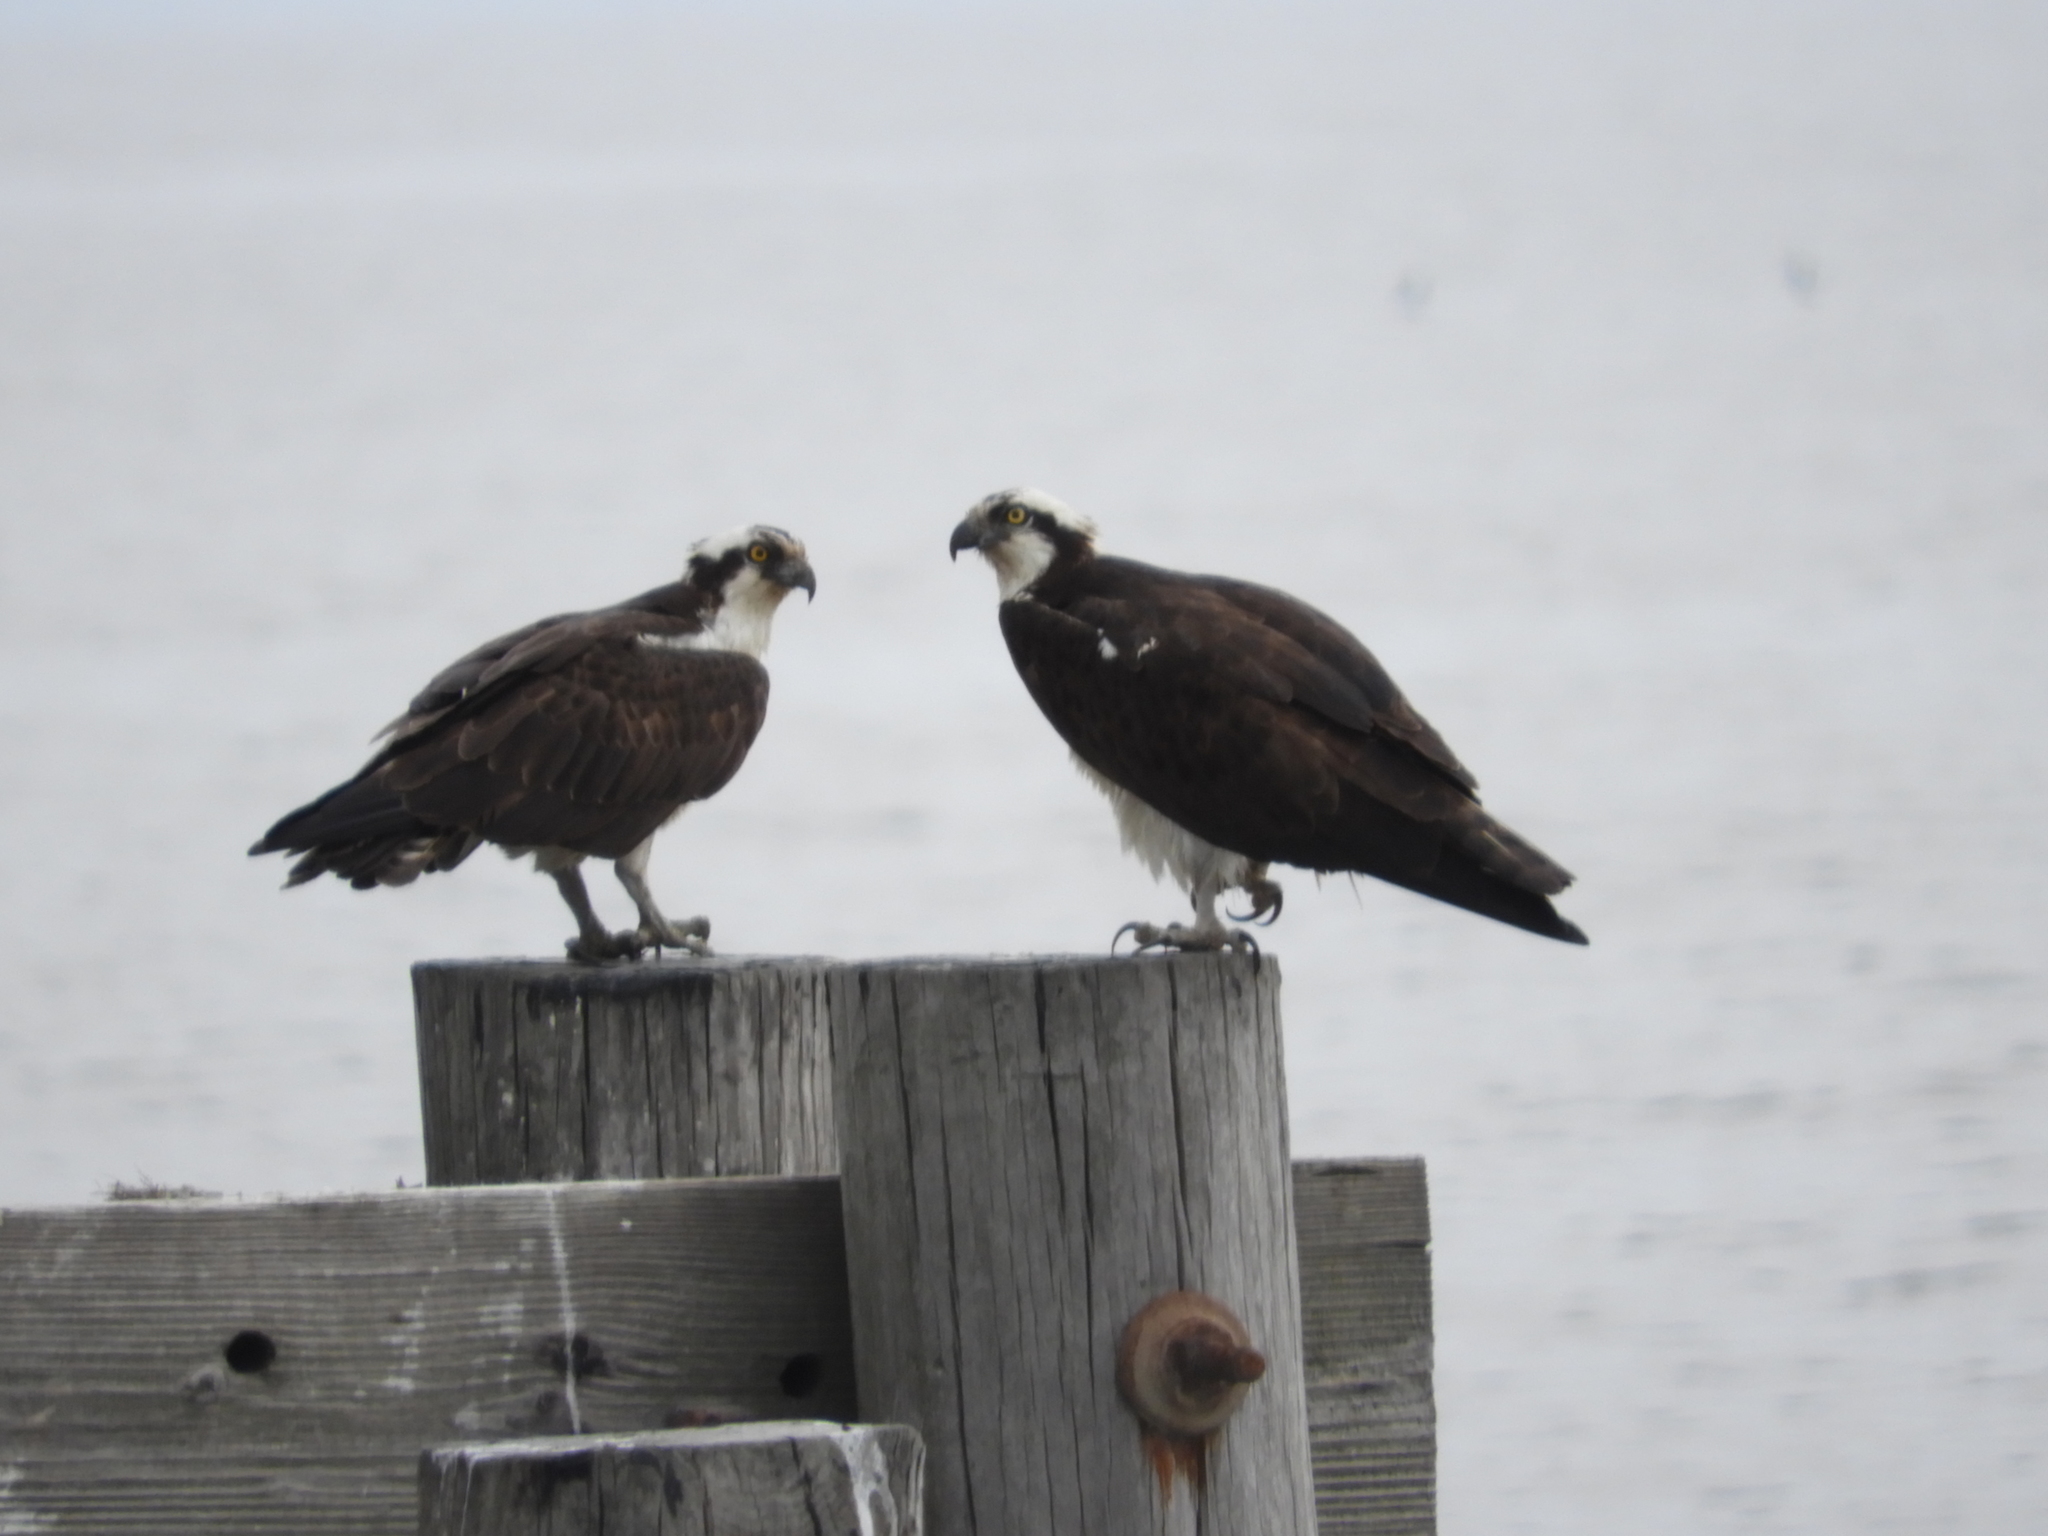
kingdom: Animalia
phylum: Chordata
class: Aves
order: Accipitriformes
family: Pandionidae
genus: Pandion
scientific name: Pandion haliaetus
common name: Osprey
